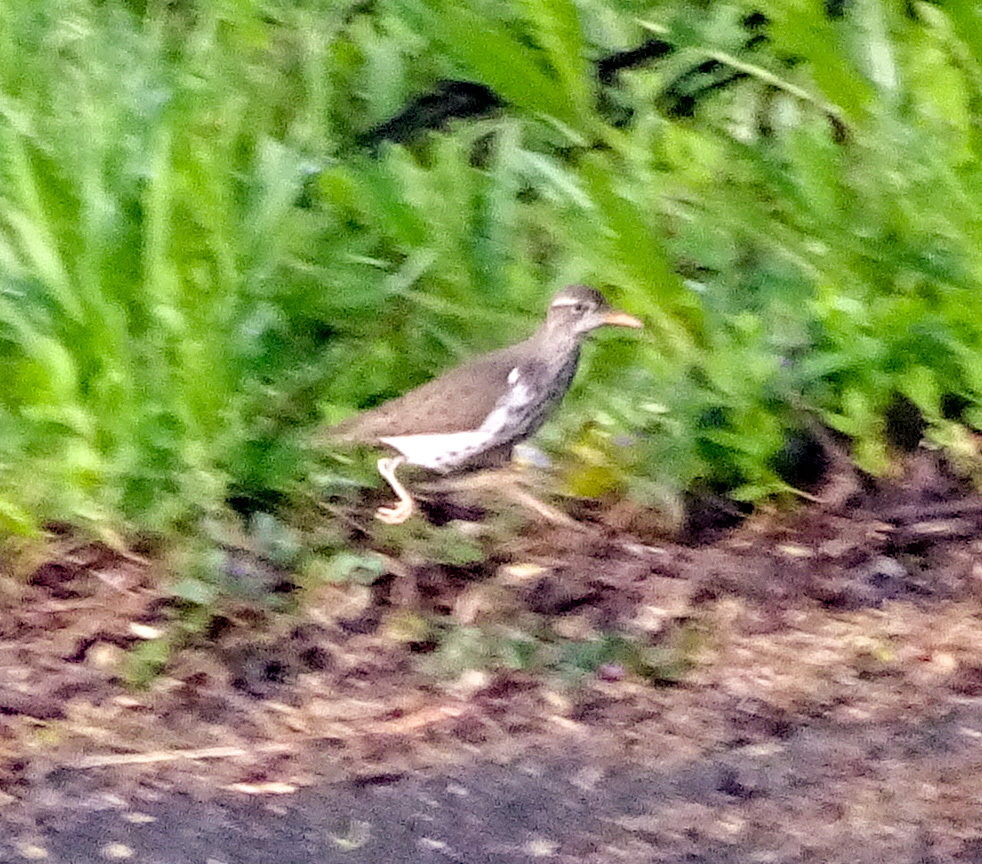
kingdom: Animalia
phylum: Chordata
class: Aves
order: Charadriiformes
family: Scolopacidae
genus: Actitis
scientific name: Actitis macularius
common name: Spotted sandpiper
